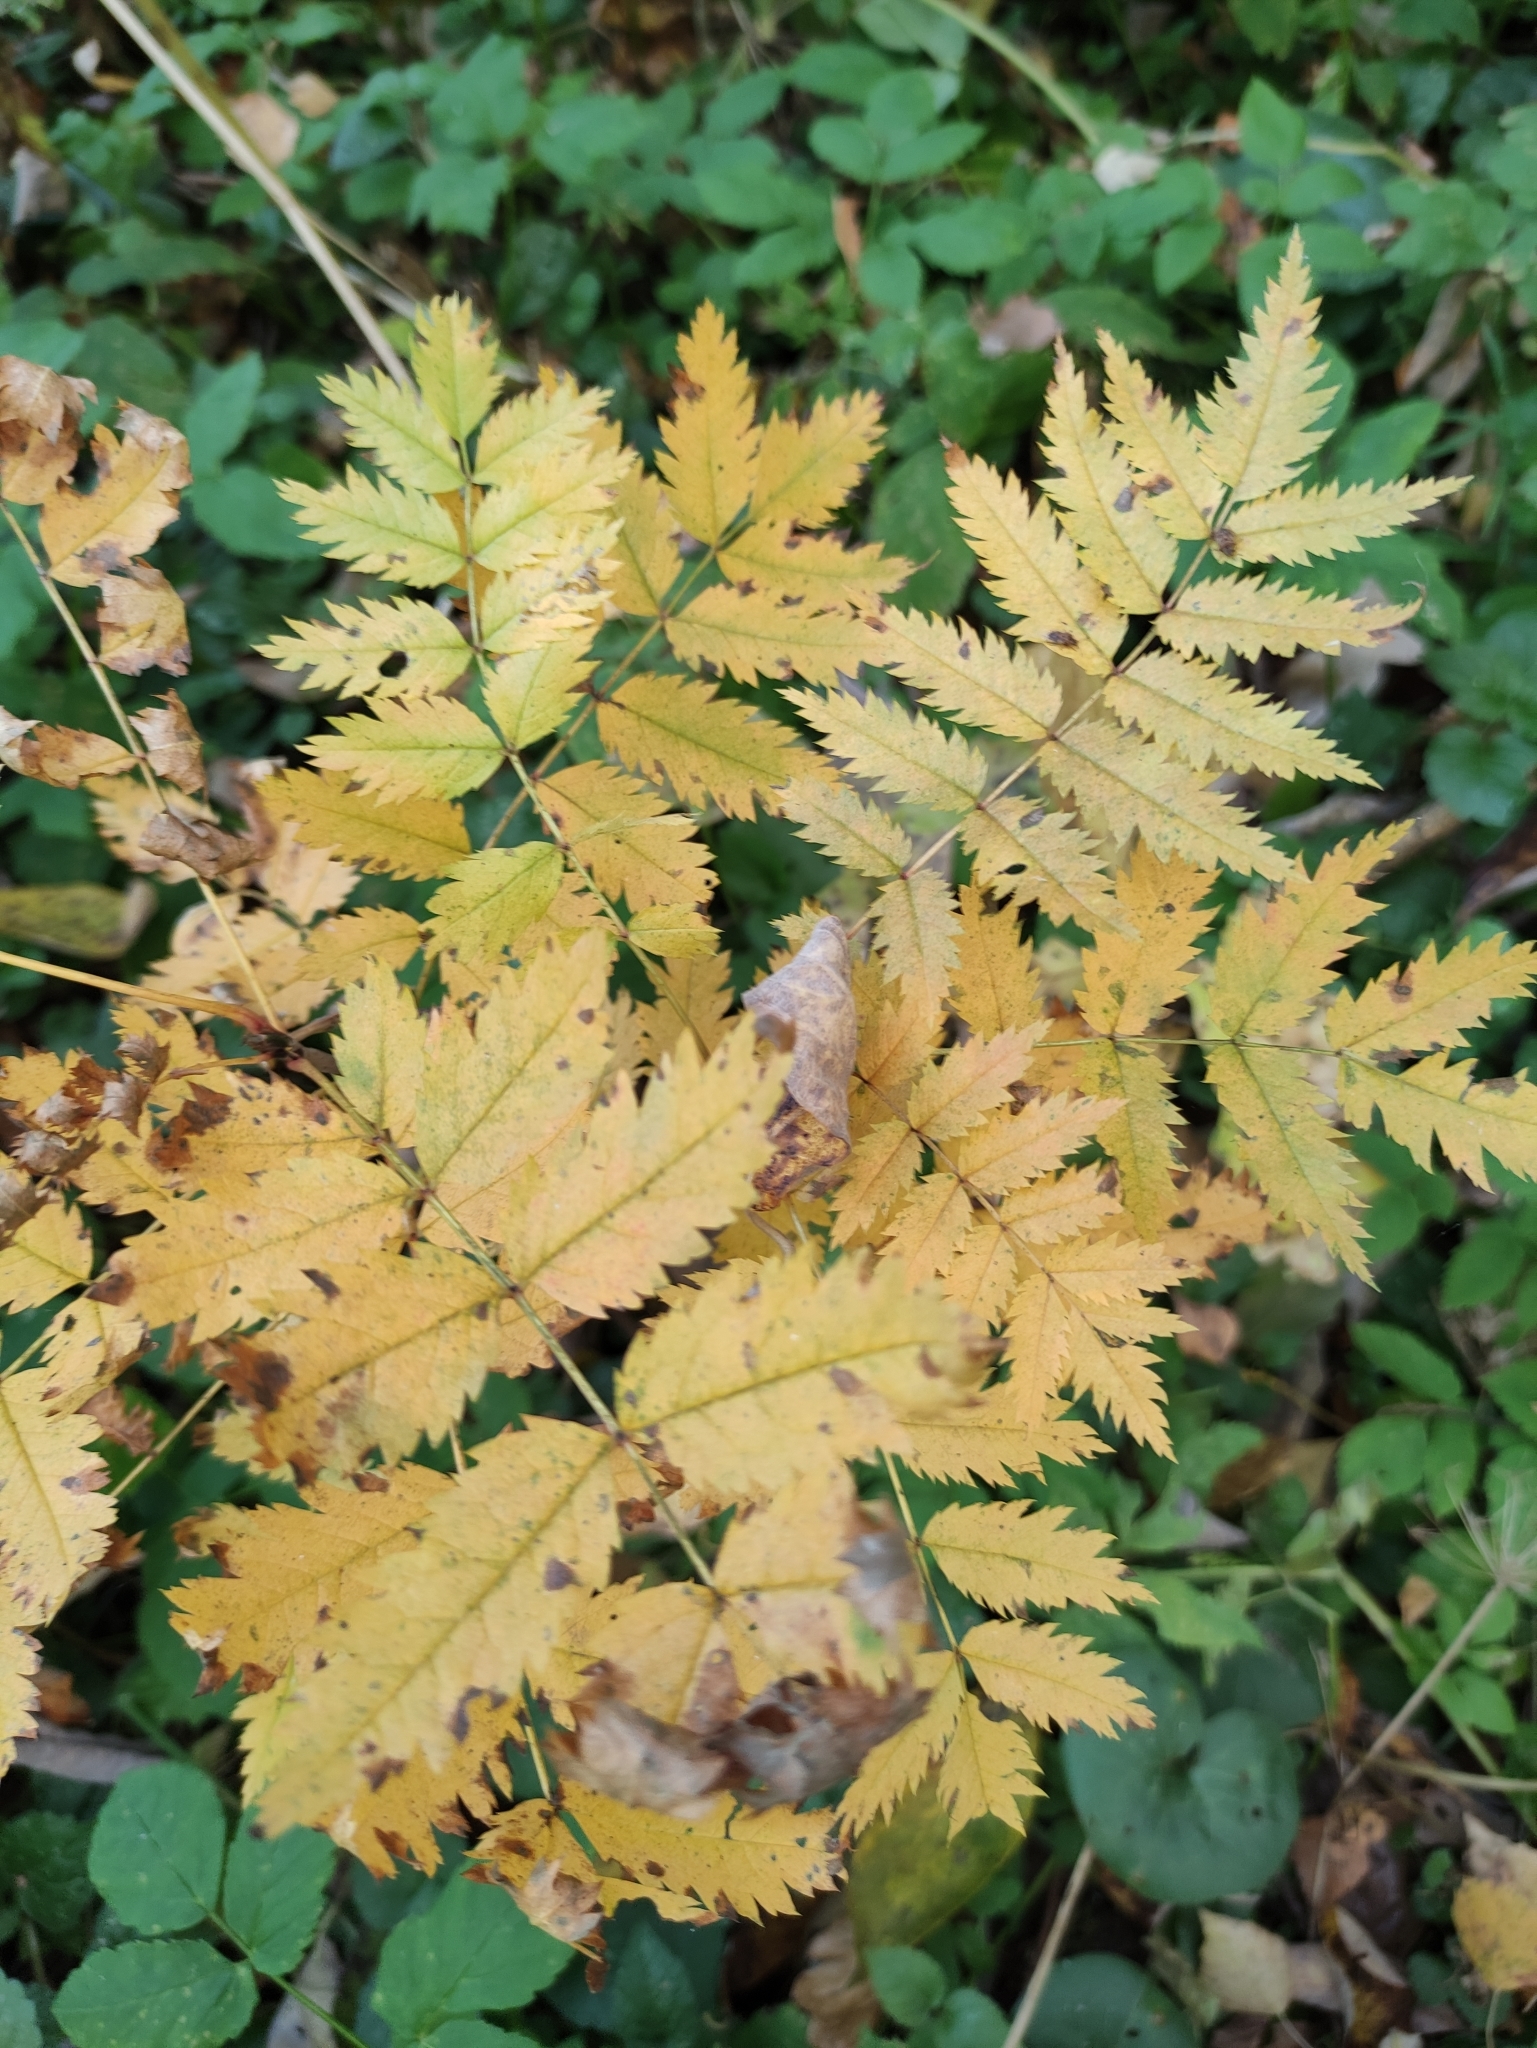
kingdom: Plantae
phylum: Tracheophyta
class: Magnoliopsida
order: Rosales
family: Rosaceae
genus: Sorbus
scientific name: Sorbus aucuparia
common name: Rowan
